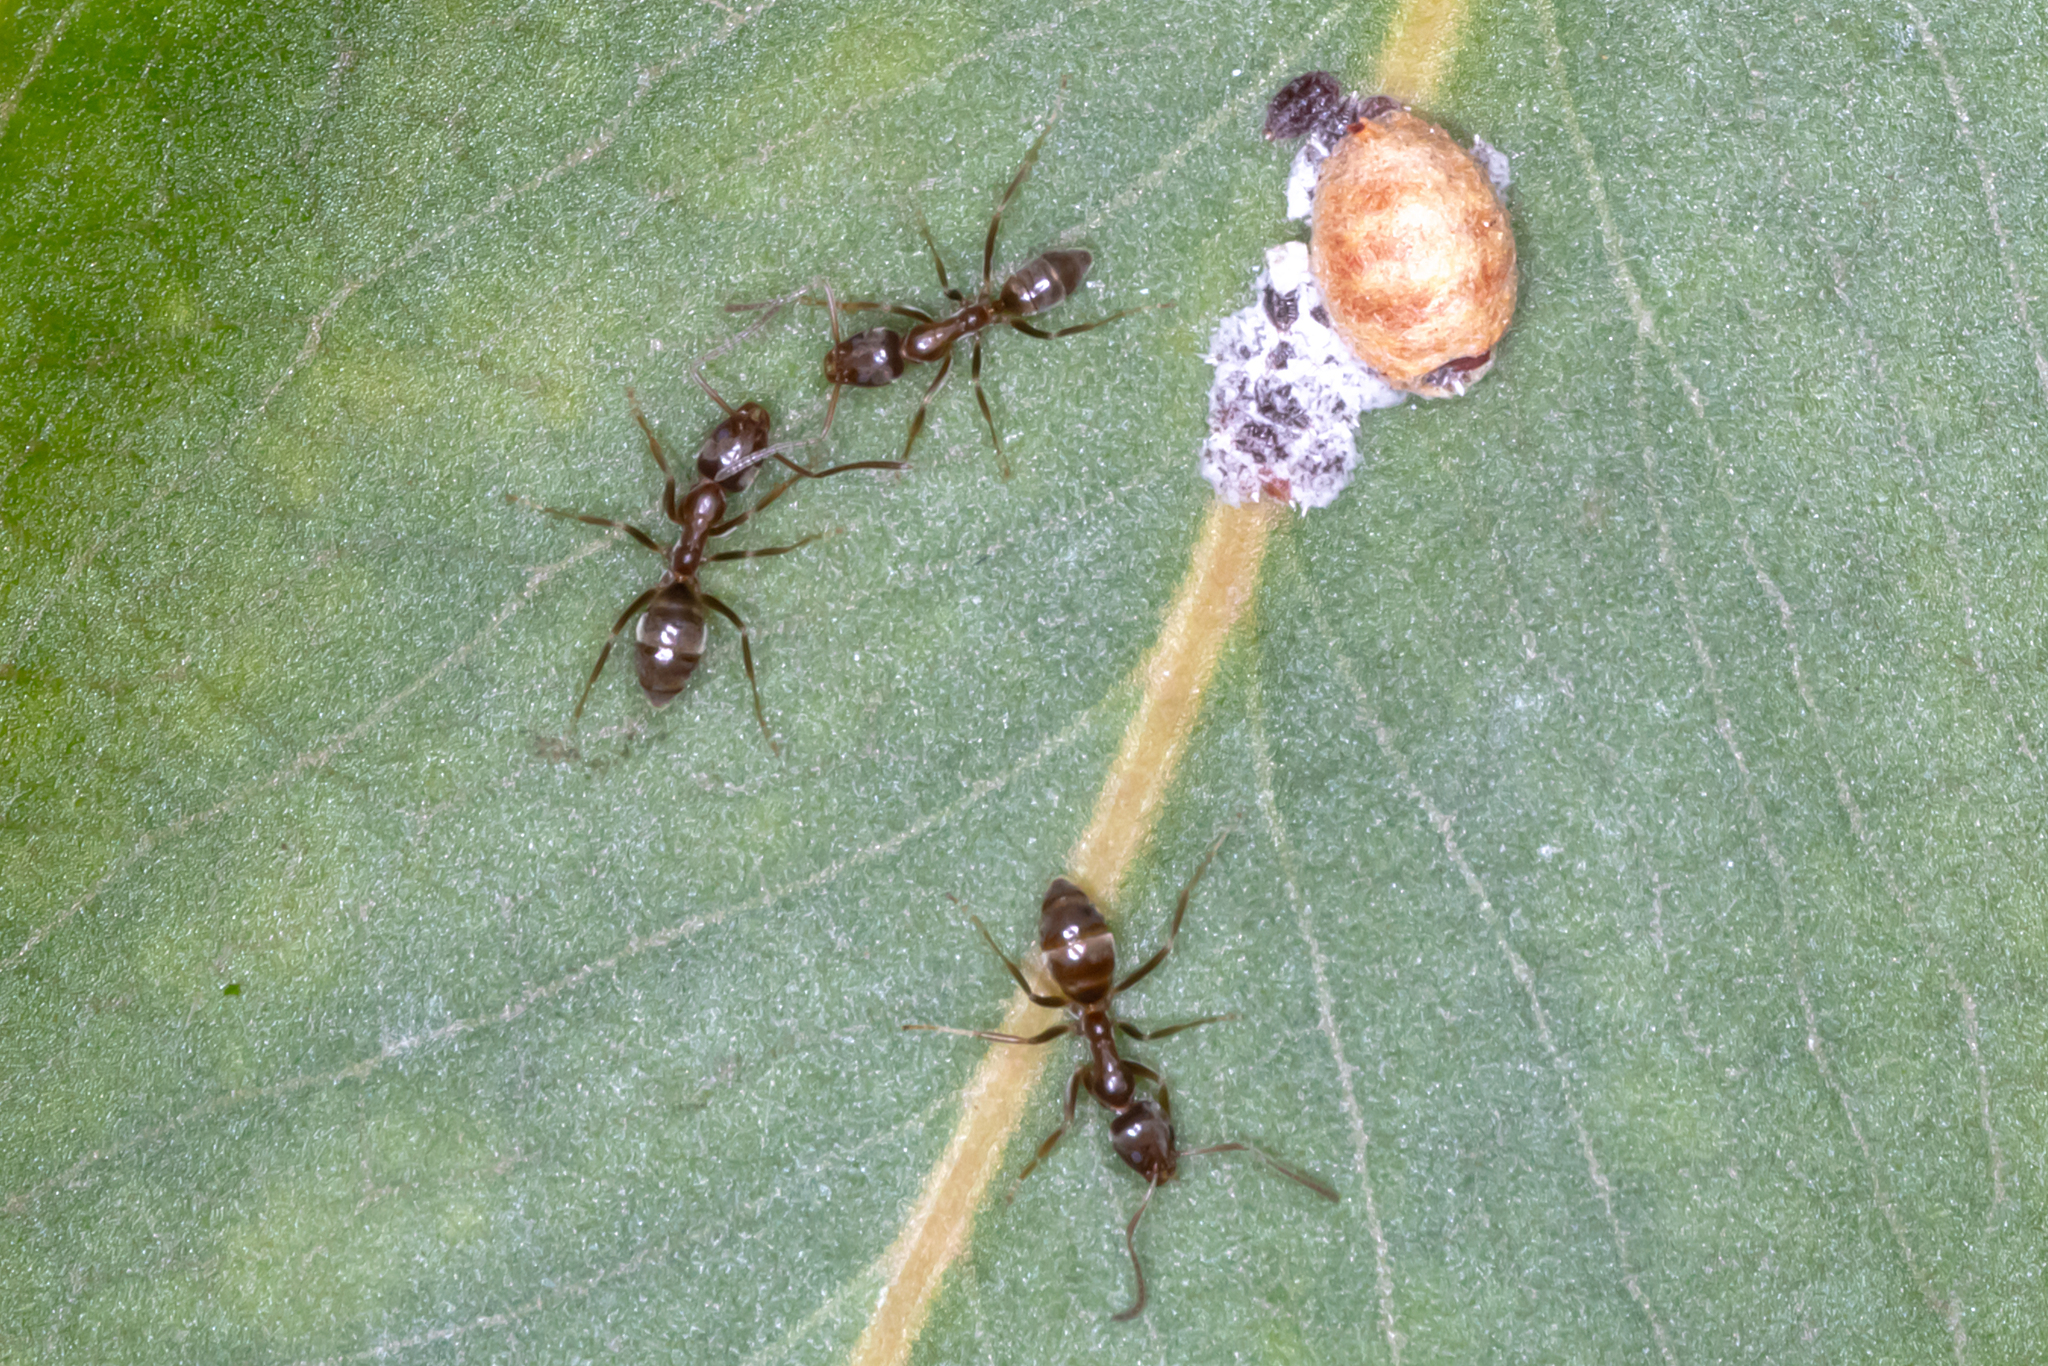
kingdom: Animalia
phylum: Arthropoda
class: Insecta
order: Hymenoptera
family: Formicidae
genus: Linepithema
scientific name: Linepithema humile
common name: Argentine ant
